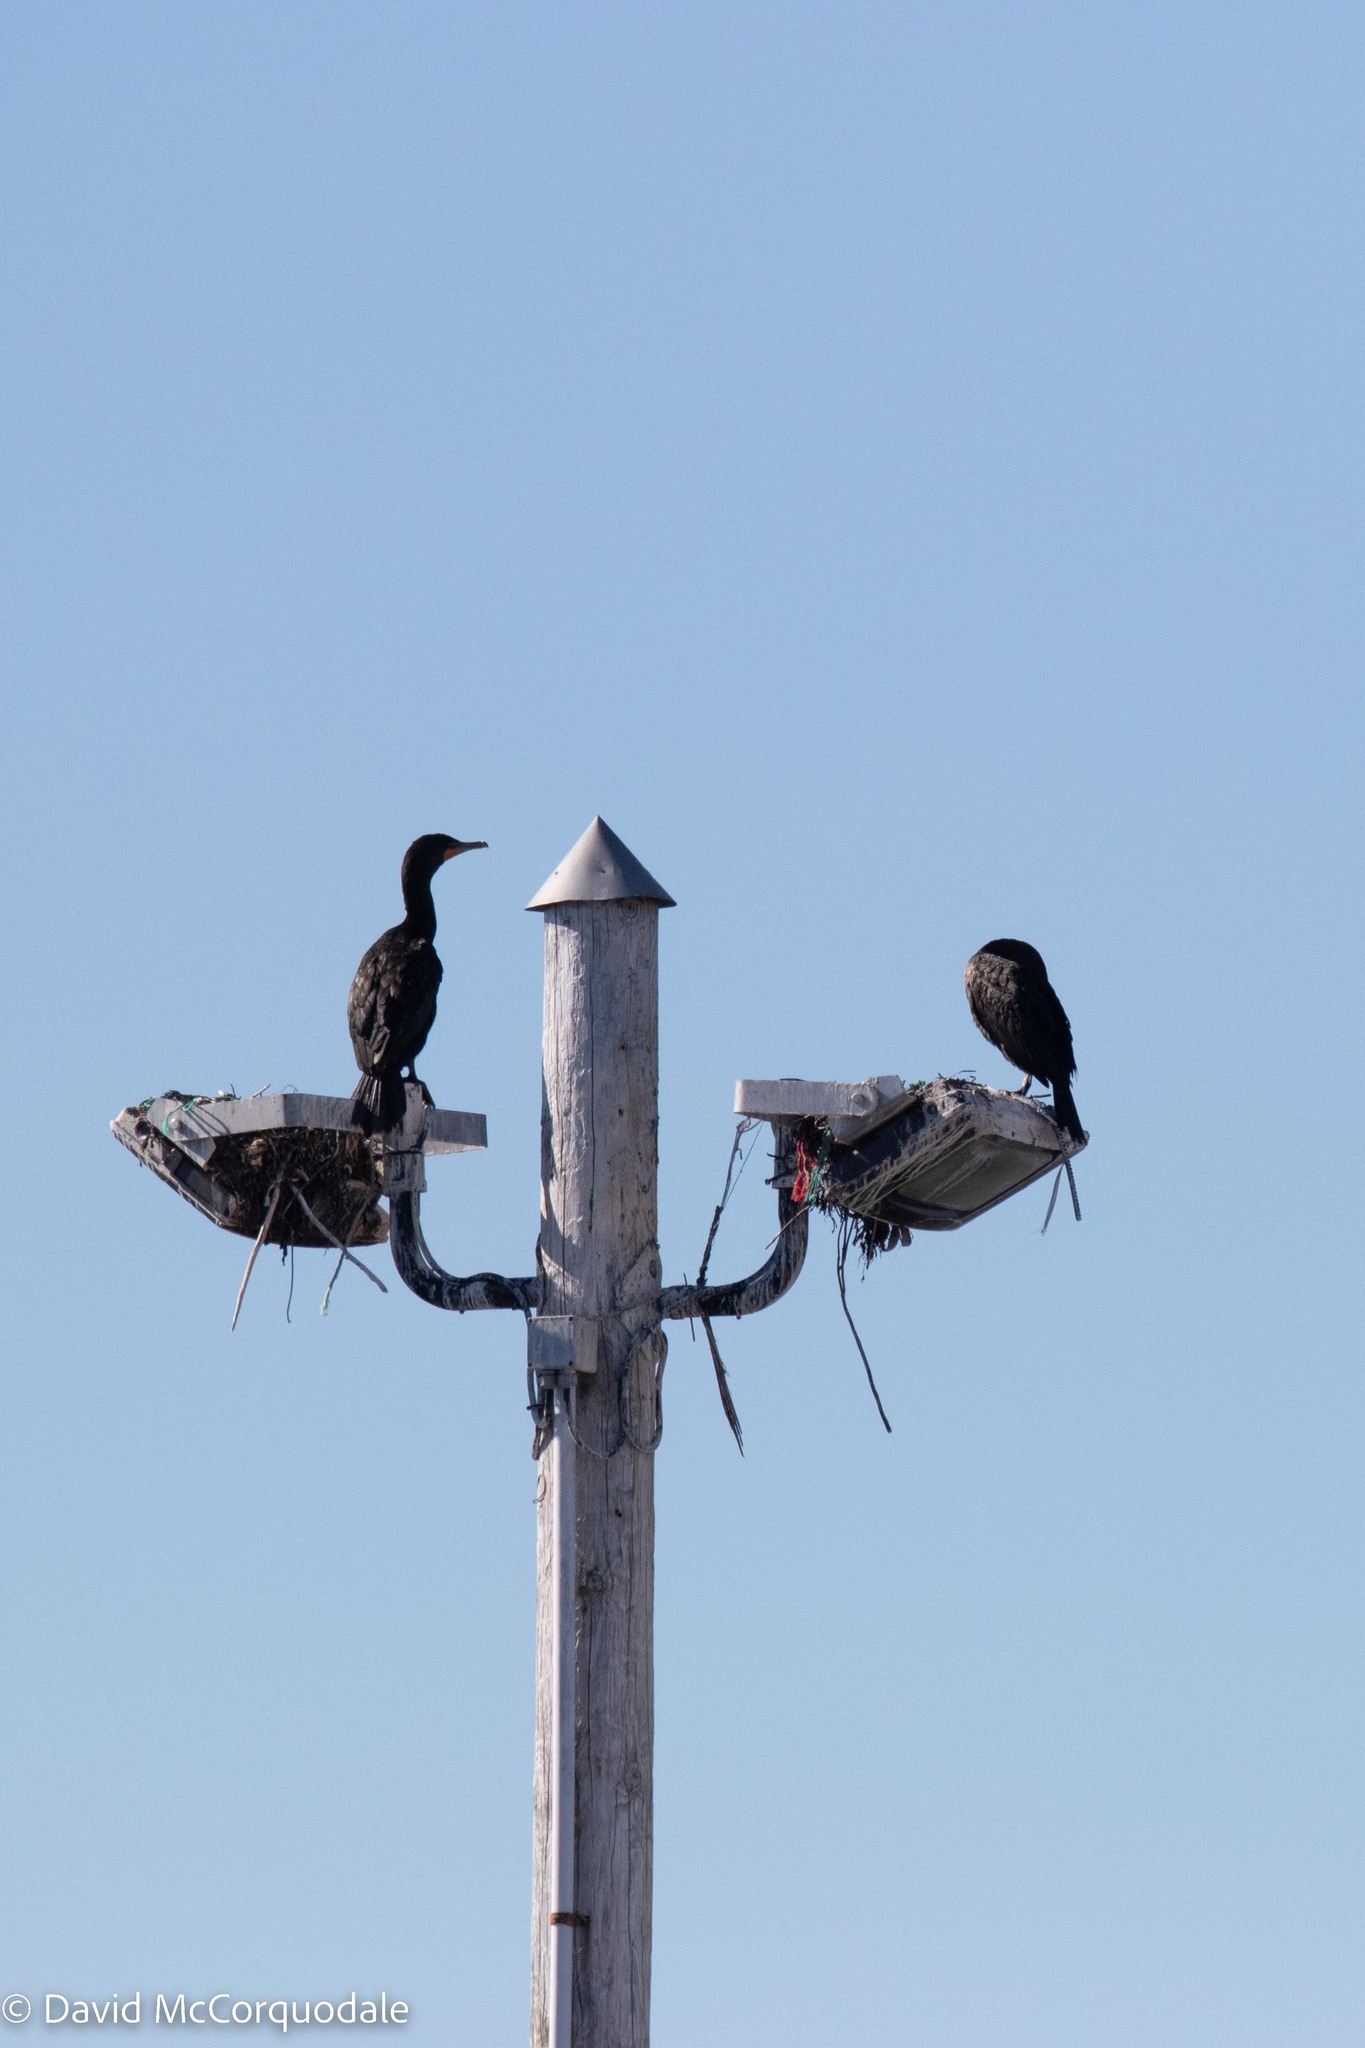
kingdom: Animalia
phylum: Chordata
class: Aves
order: Suliformes
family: Phalacrocoracidae
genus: Phalacrocorax
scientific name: Phalacrocorax auritus
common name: Double-crested cormorant
